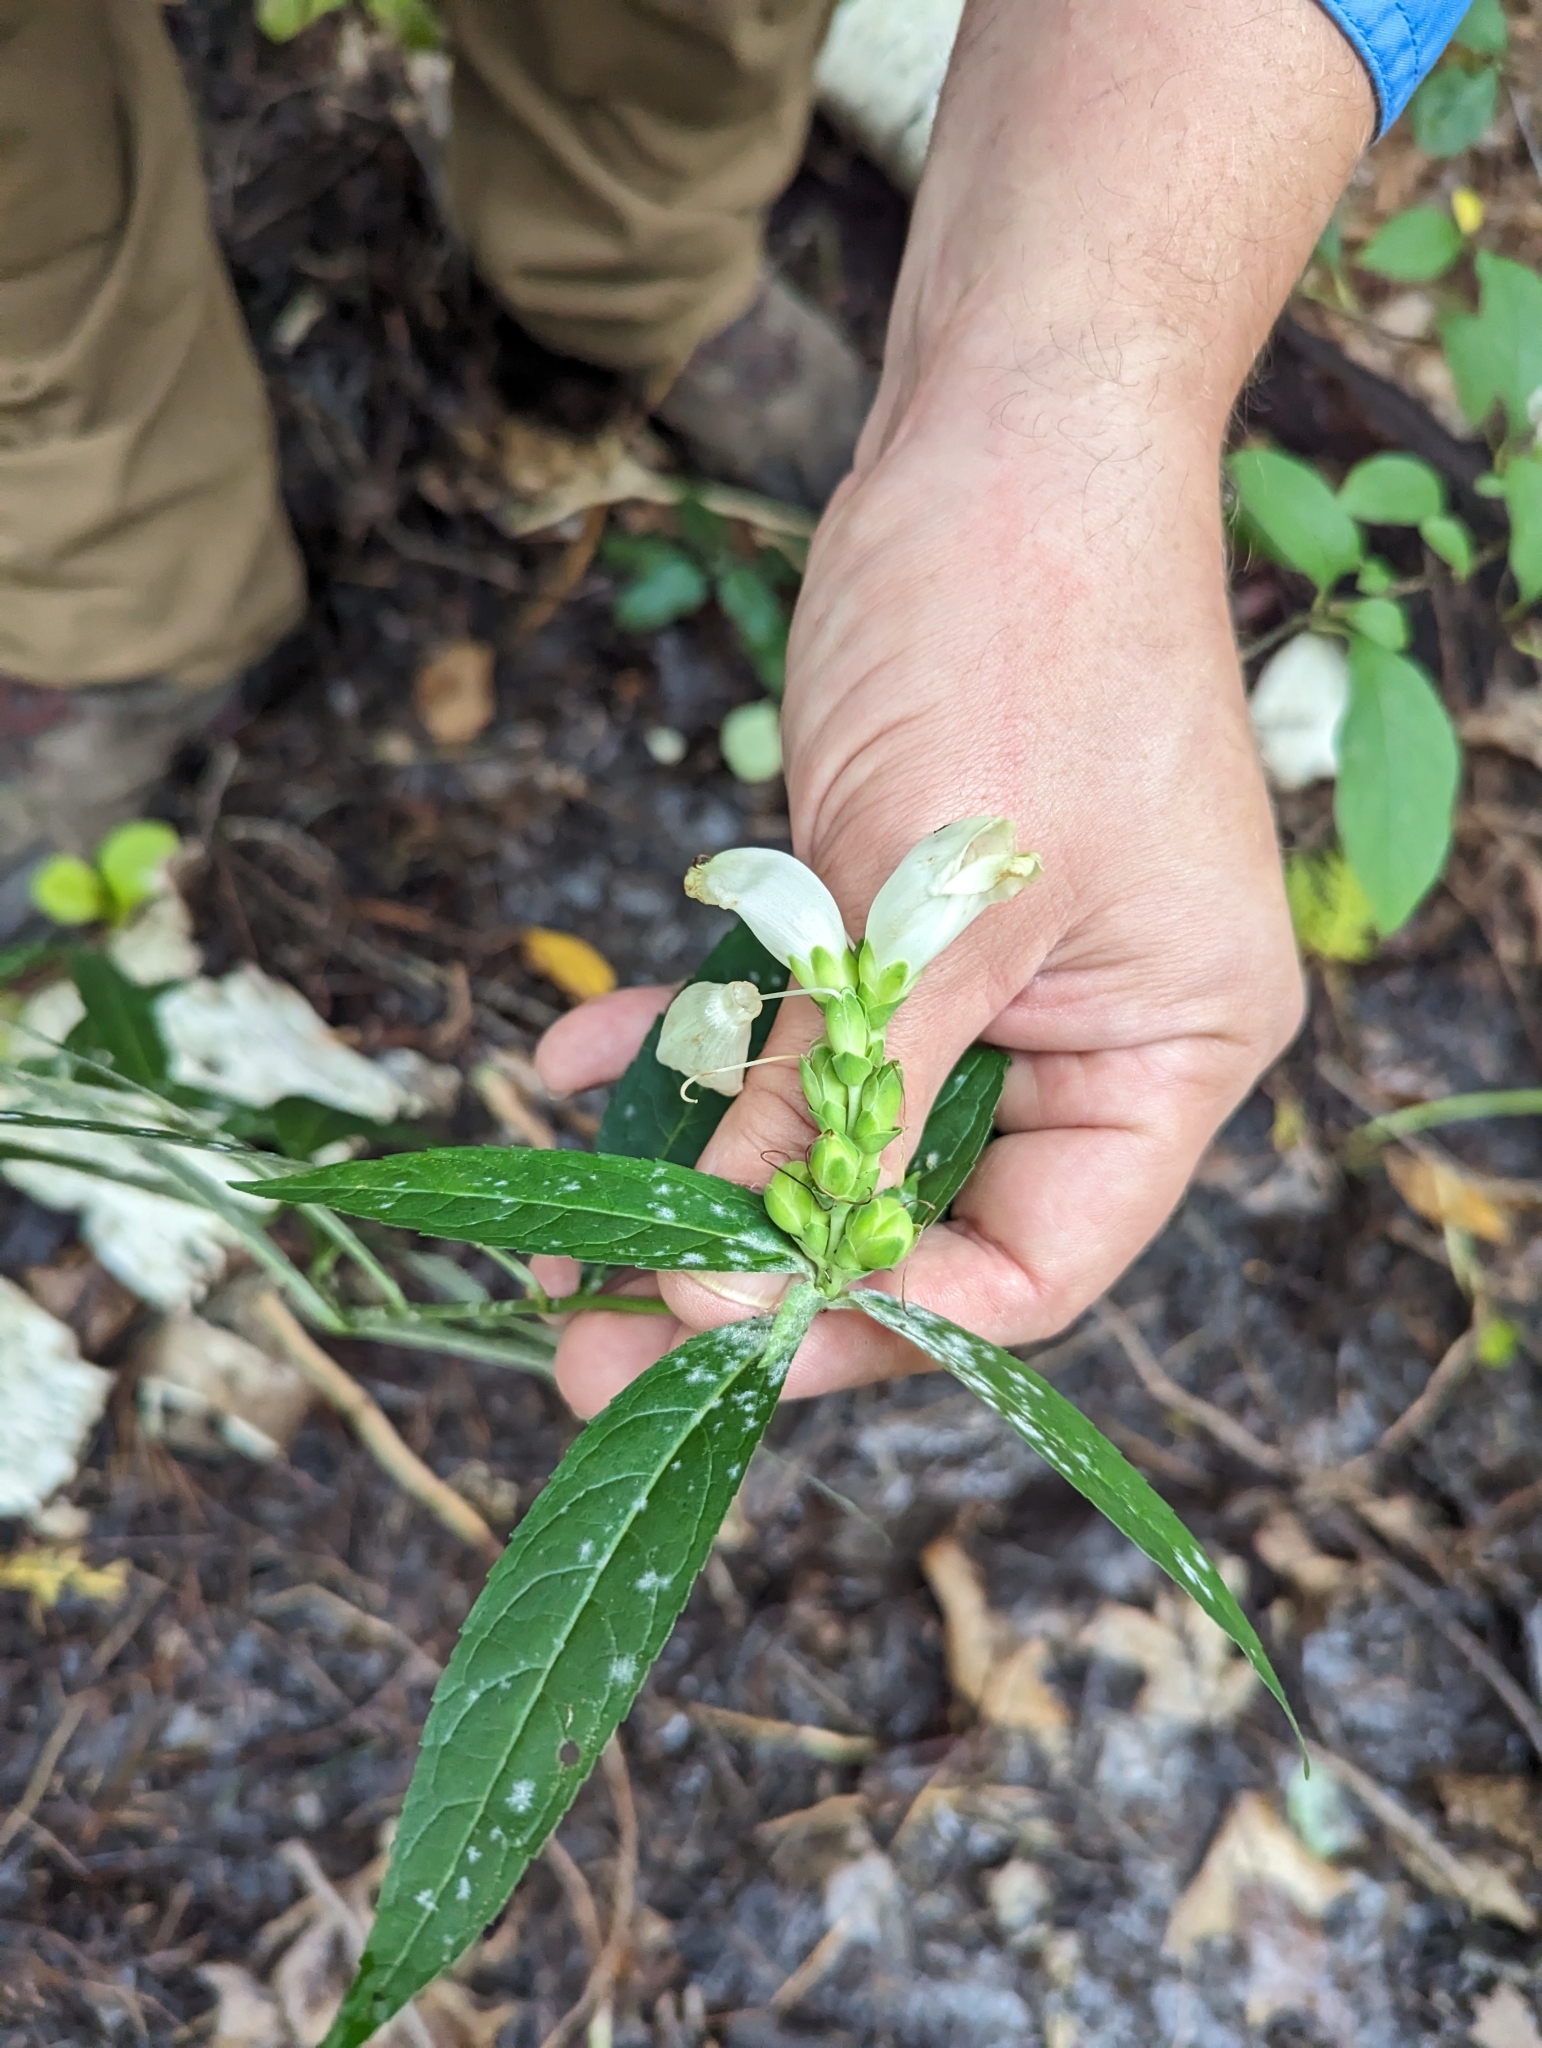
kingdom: Plantae
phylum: Tracheophyta
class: Magnoliopsida
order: Lamiales
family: Plantaginaceae
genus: Chelone
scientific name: Chelone glabra
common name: Snakehead
